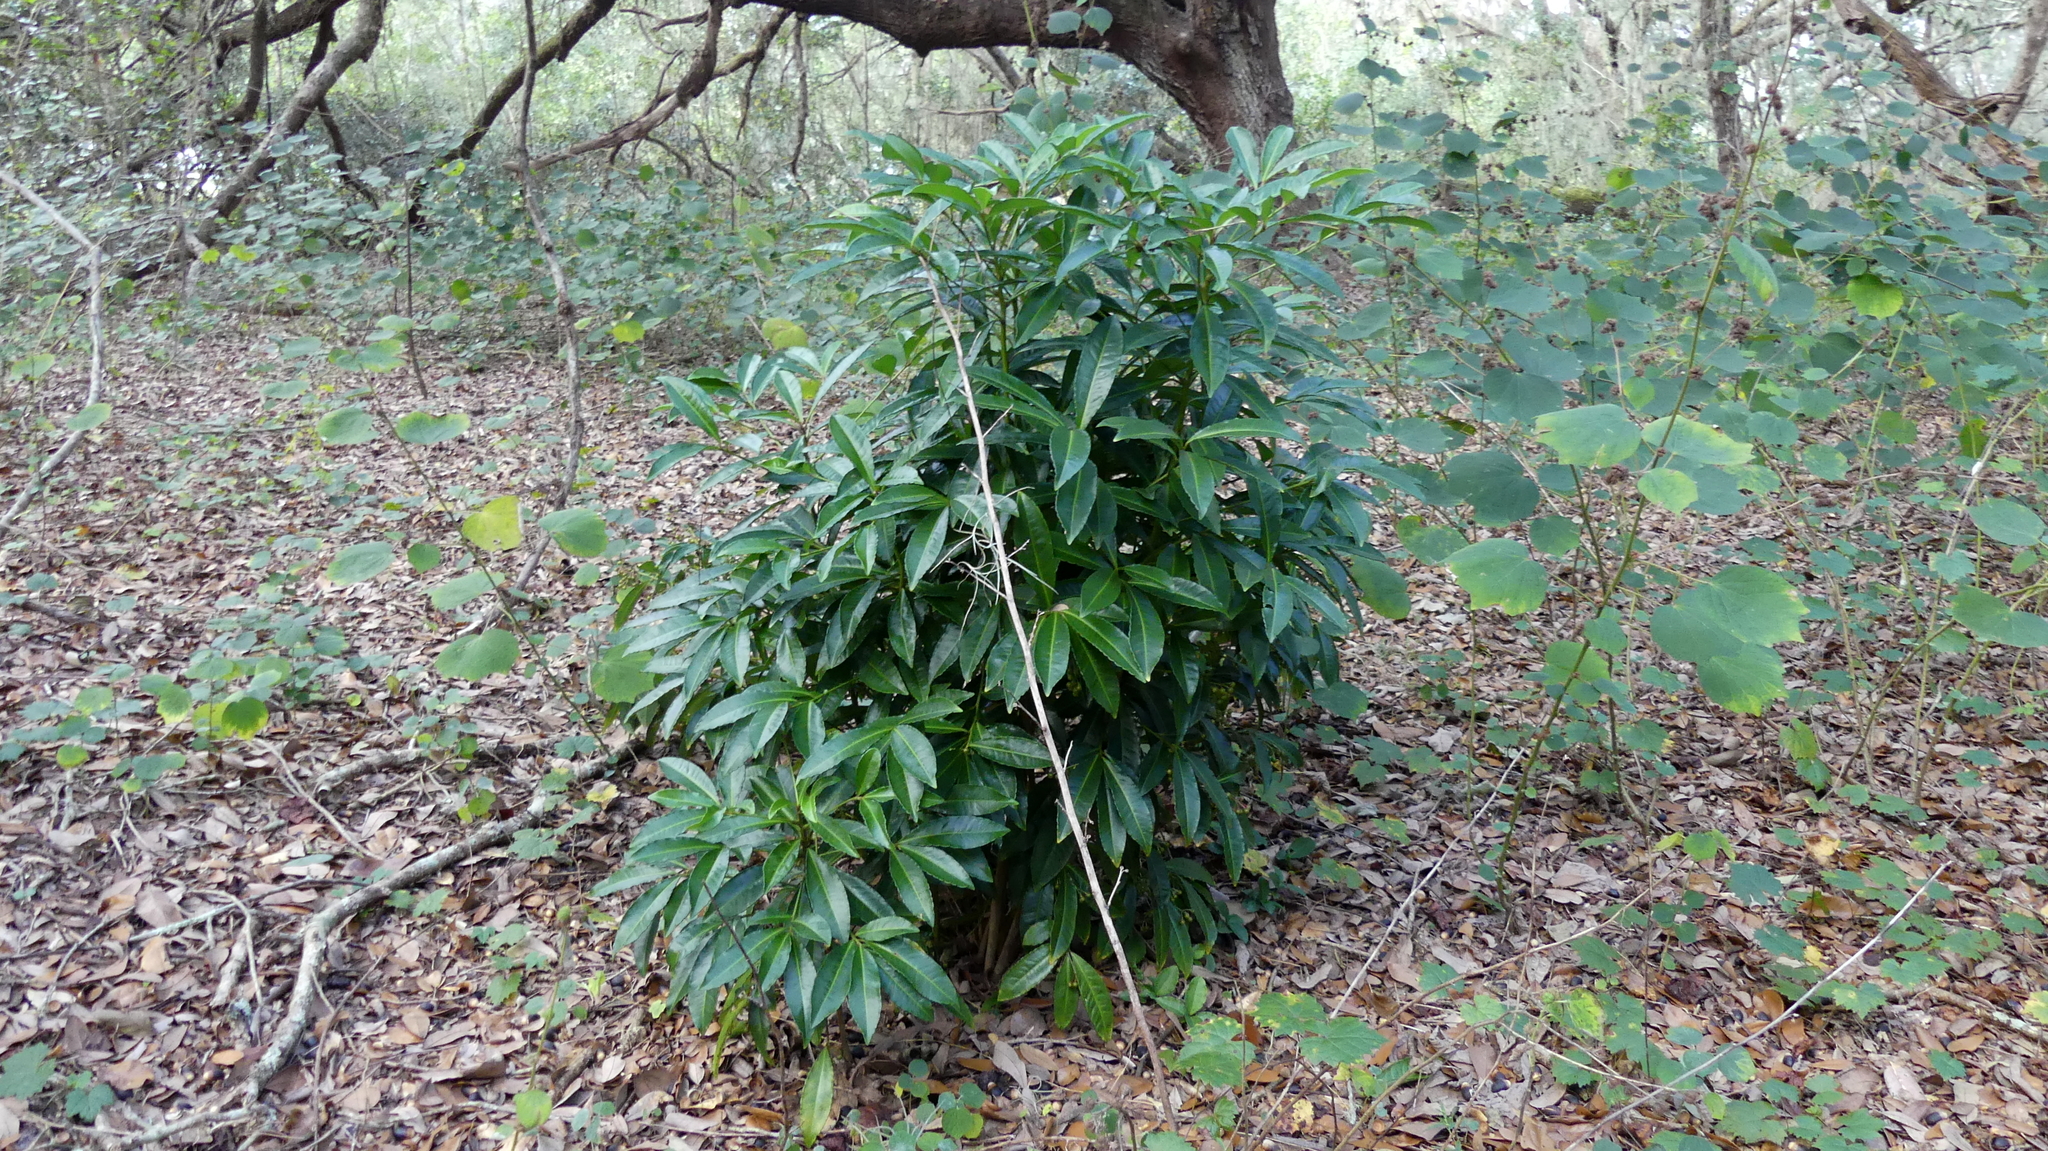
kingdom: Plantae
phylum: Tracheophyta
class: Magnoliopsida
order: Ericales
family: Primulaceae
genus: Ardisia
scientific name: Ardisia crenata
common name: Hen's eyes
